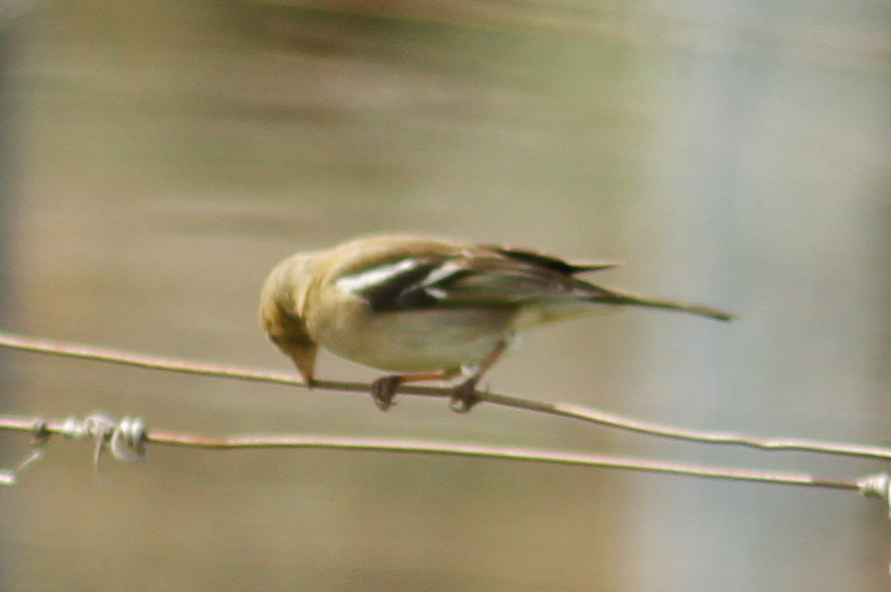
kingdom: Animalia
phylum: Chordata
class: Aves
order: Passeriformes
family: Fringillidae
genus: Fringilla
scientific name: Fringilla coelebs
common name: Common chaffinch
